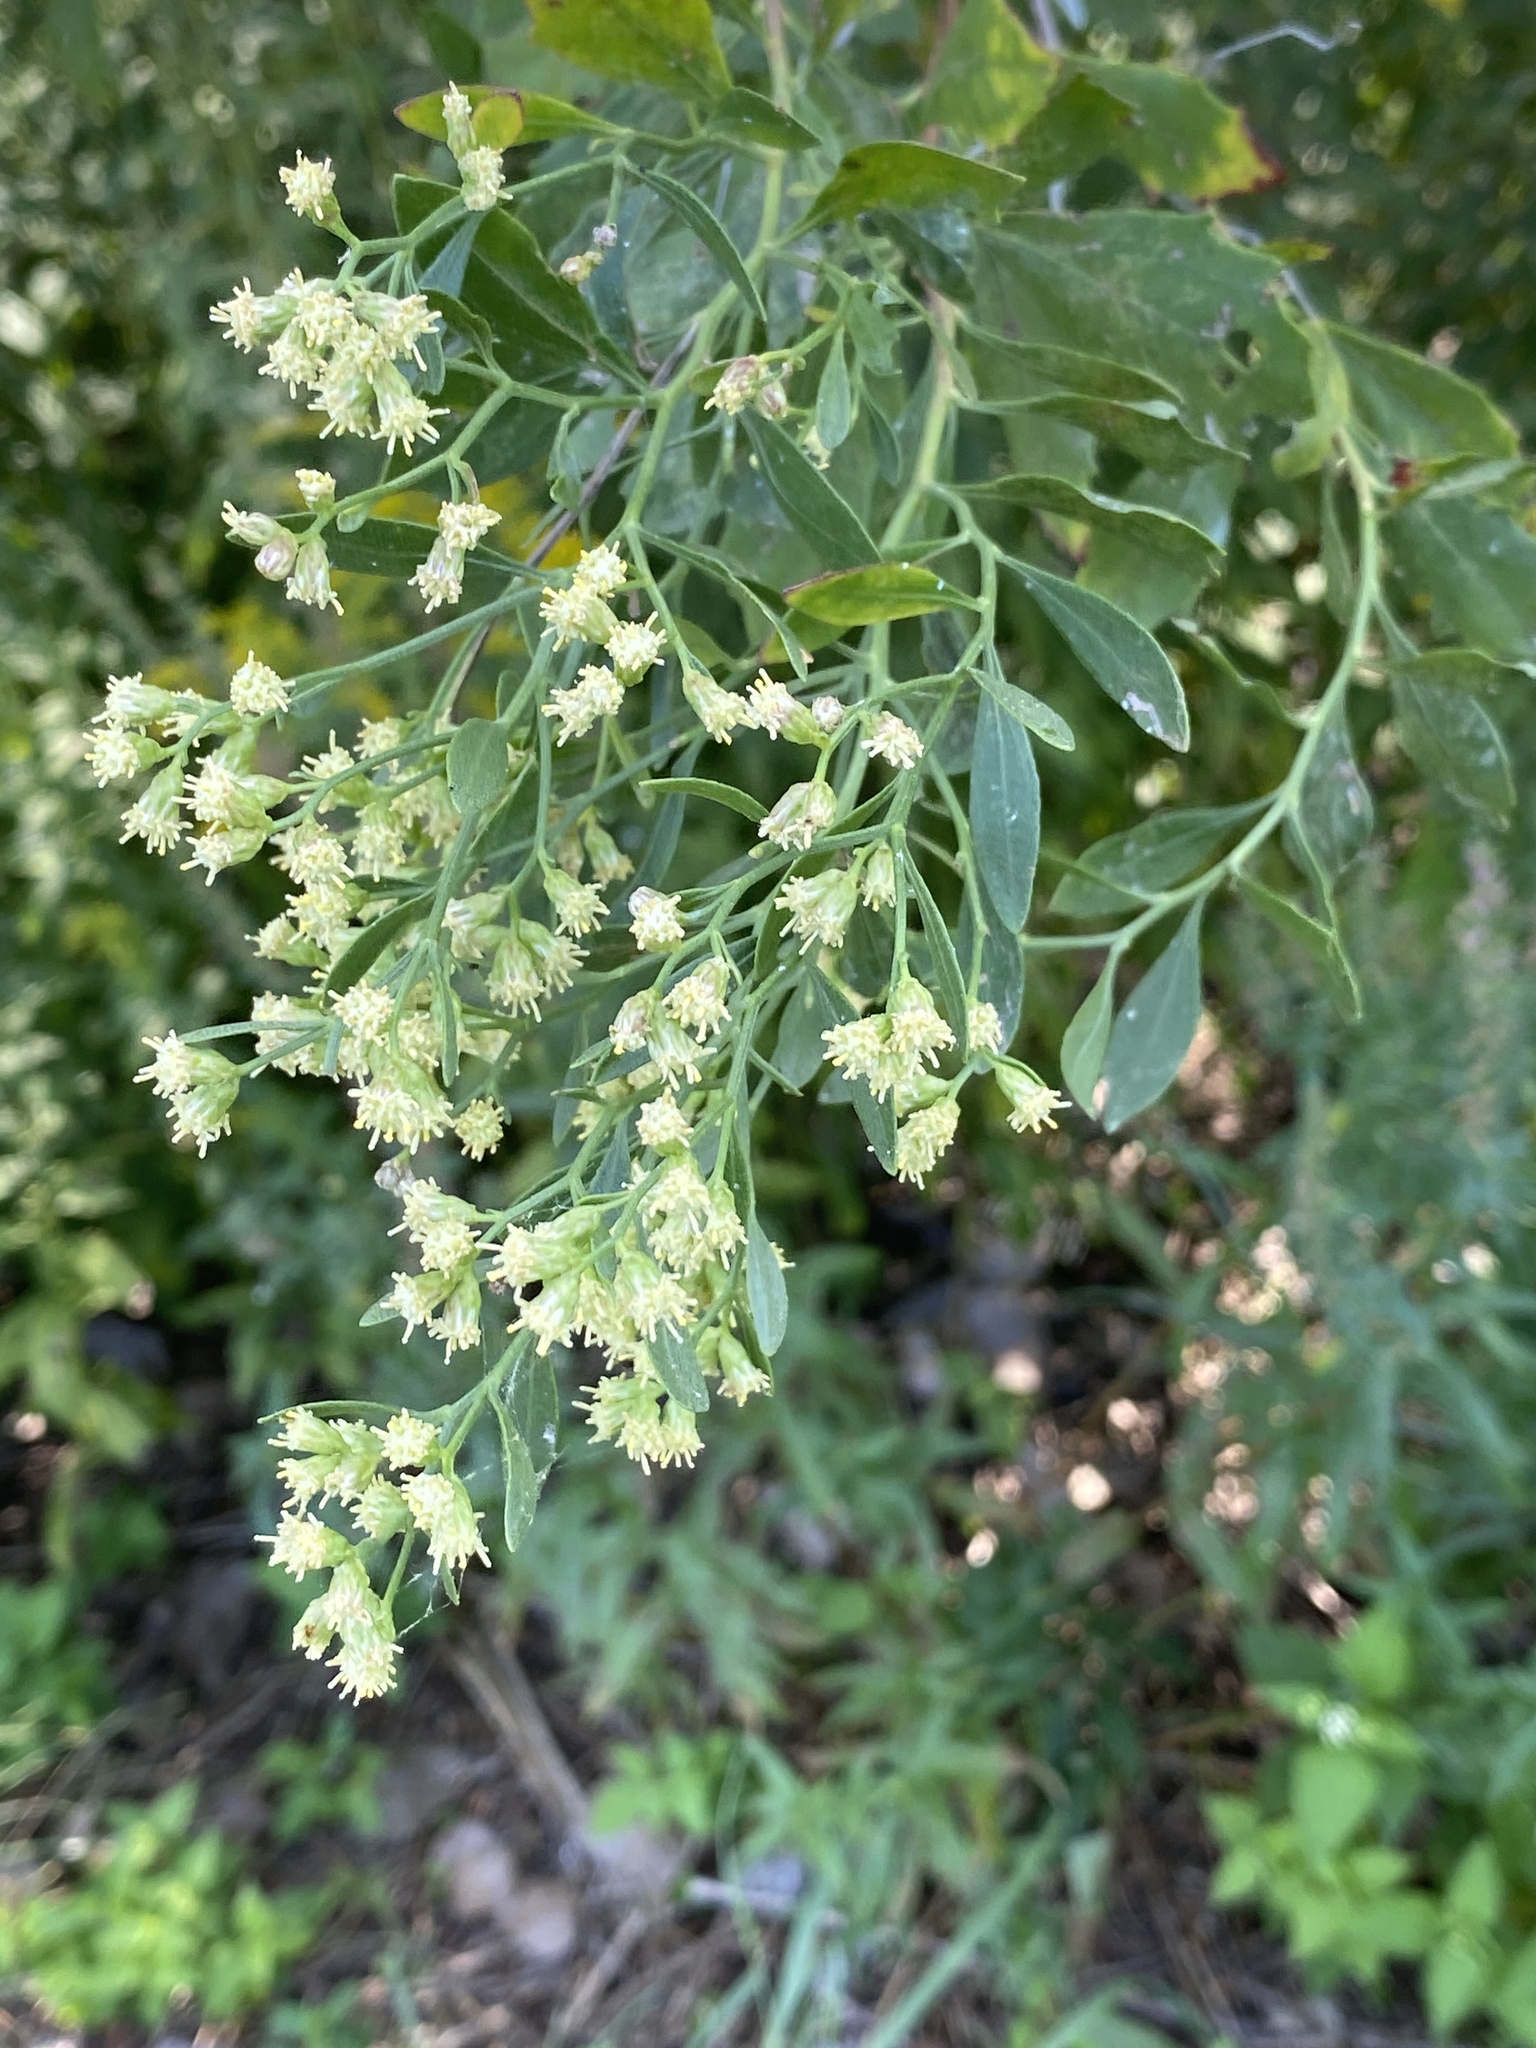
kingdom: Plantae
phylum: Tracheophyta
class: Magnoliopsida
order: Asterales
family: Asteraceae
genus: Baccharis
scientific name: Baccharis halimifolia
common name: Eastern baccharis
